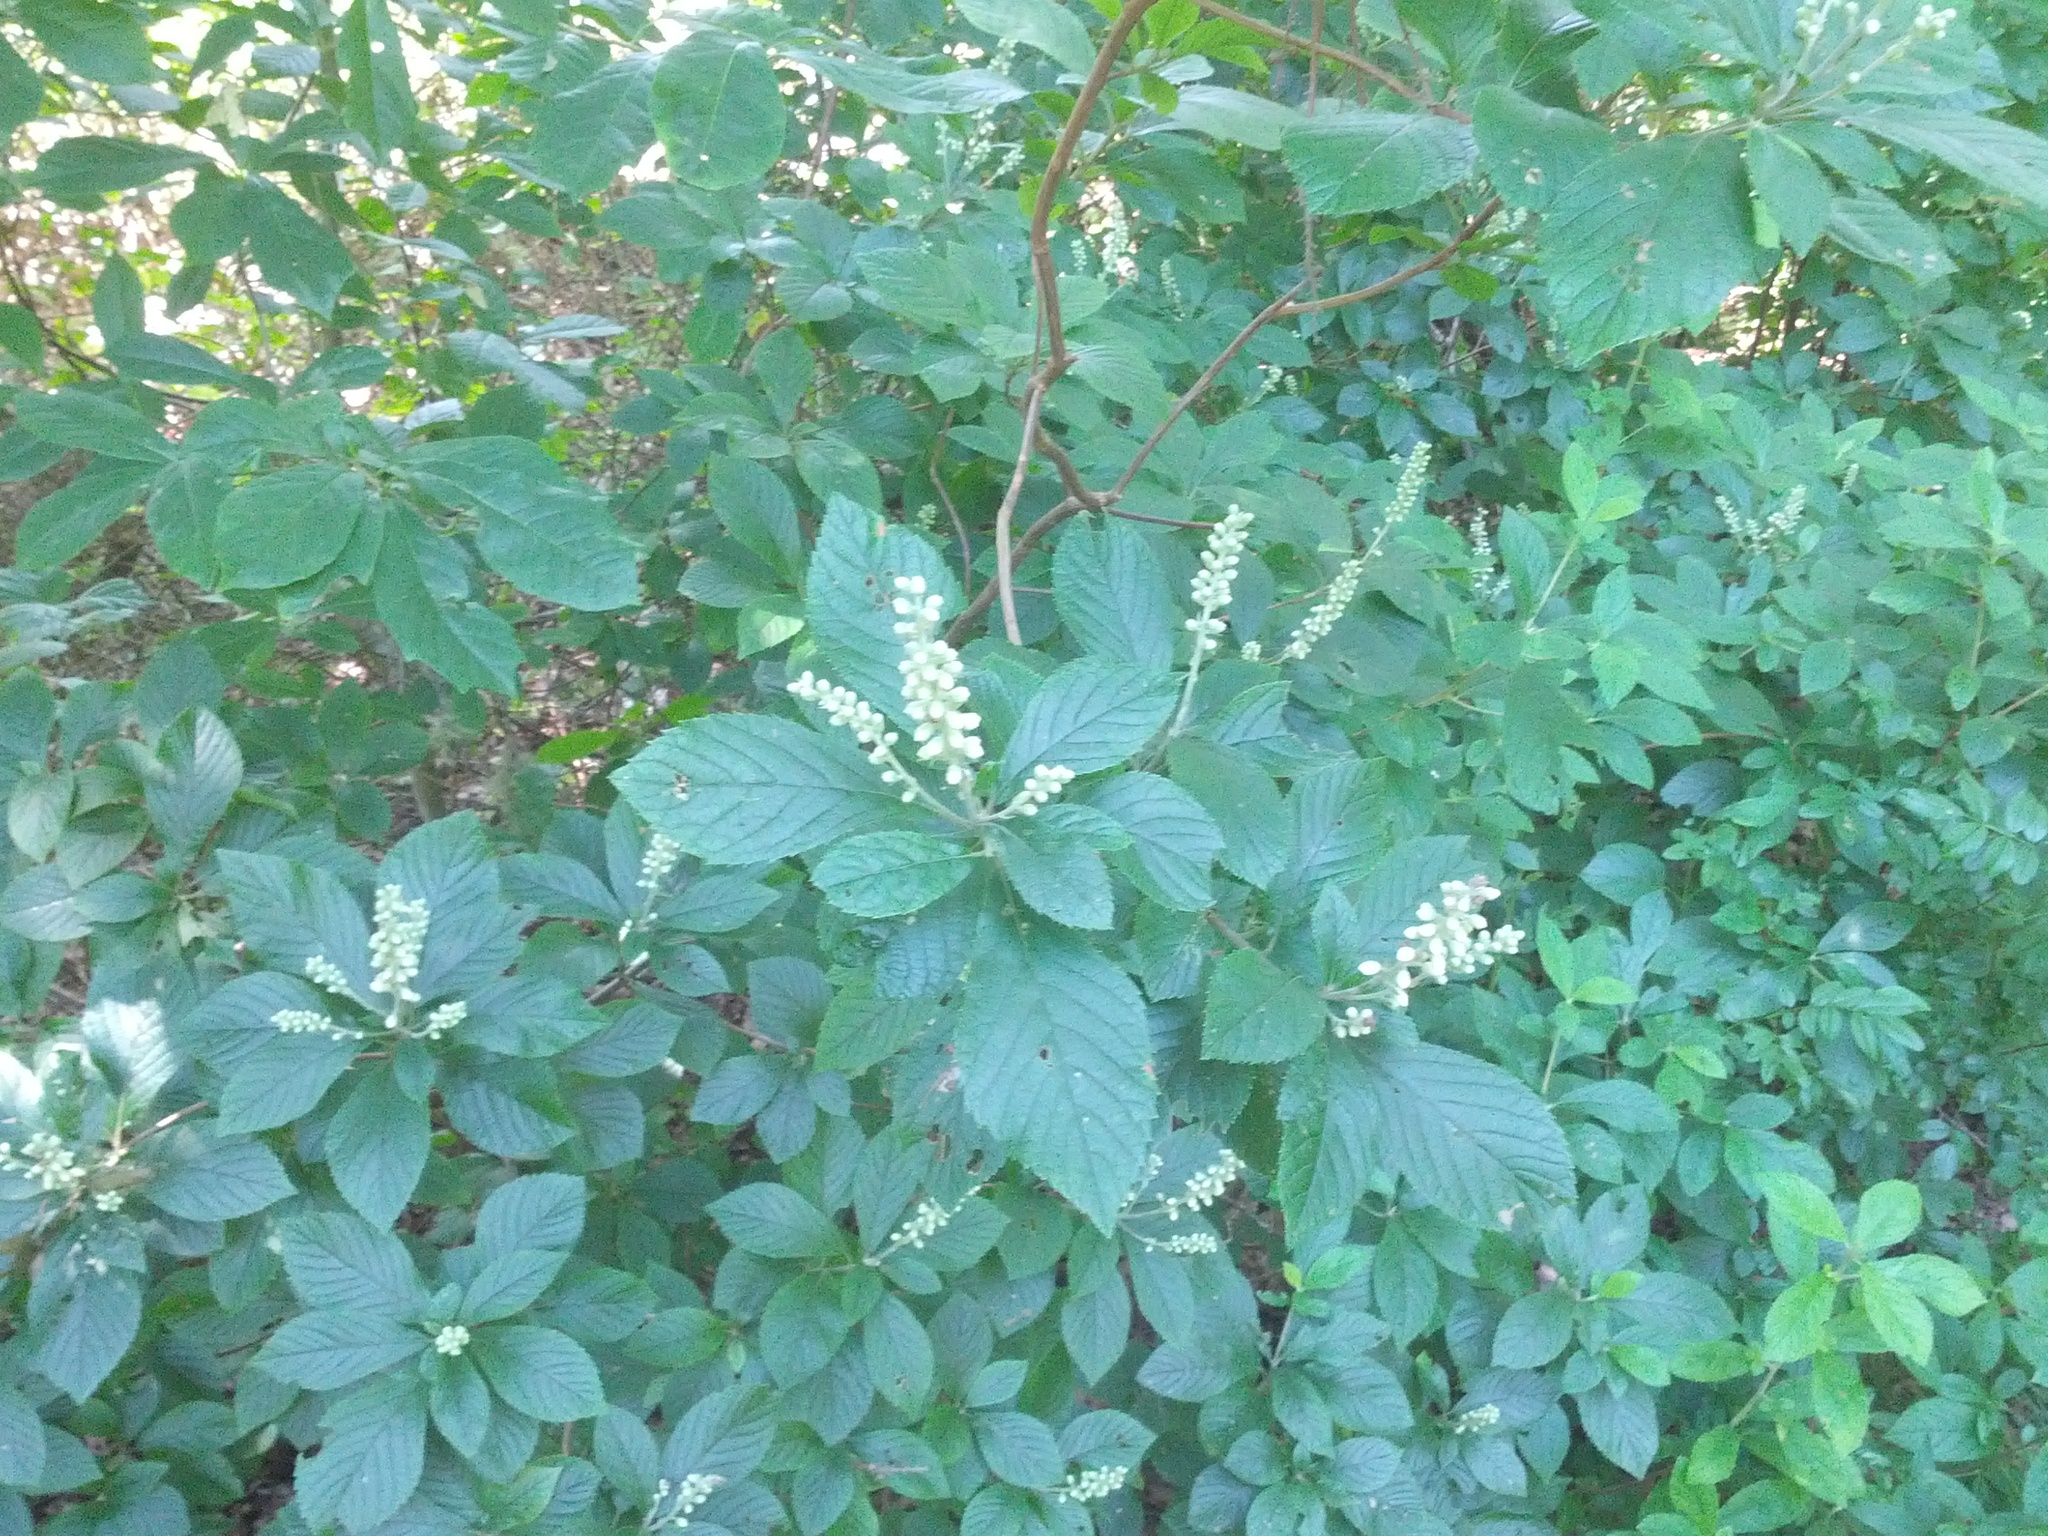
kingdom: Plantae
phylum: Tracheophyta
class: Magnoliopsida
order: Ericales
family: Clethraceae
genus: Clethra
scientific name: Clethra alnifolia
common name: Sweet pepperbush
